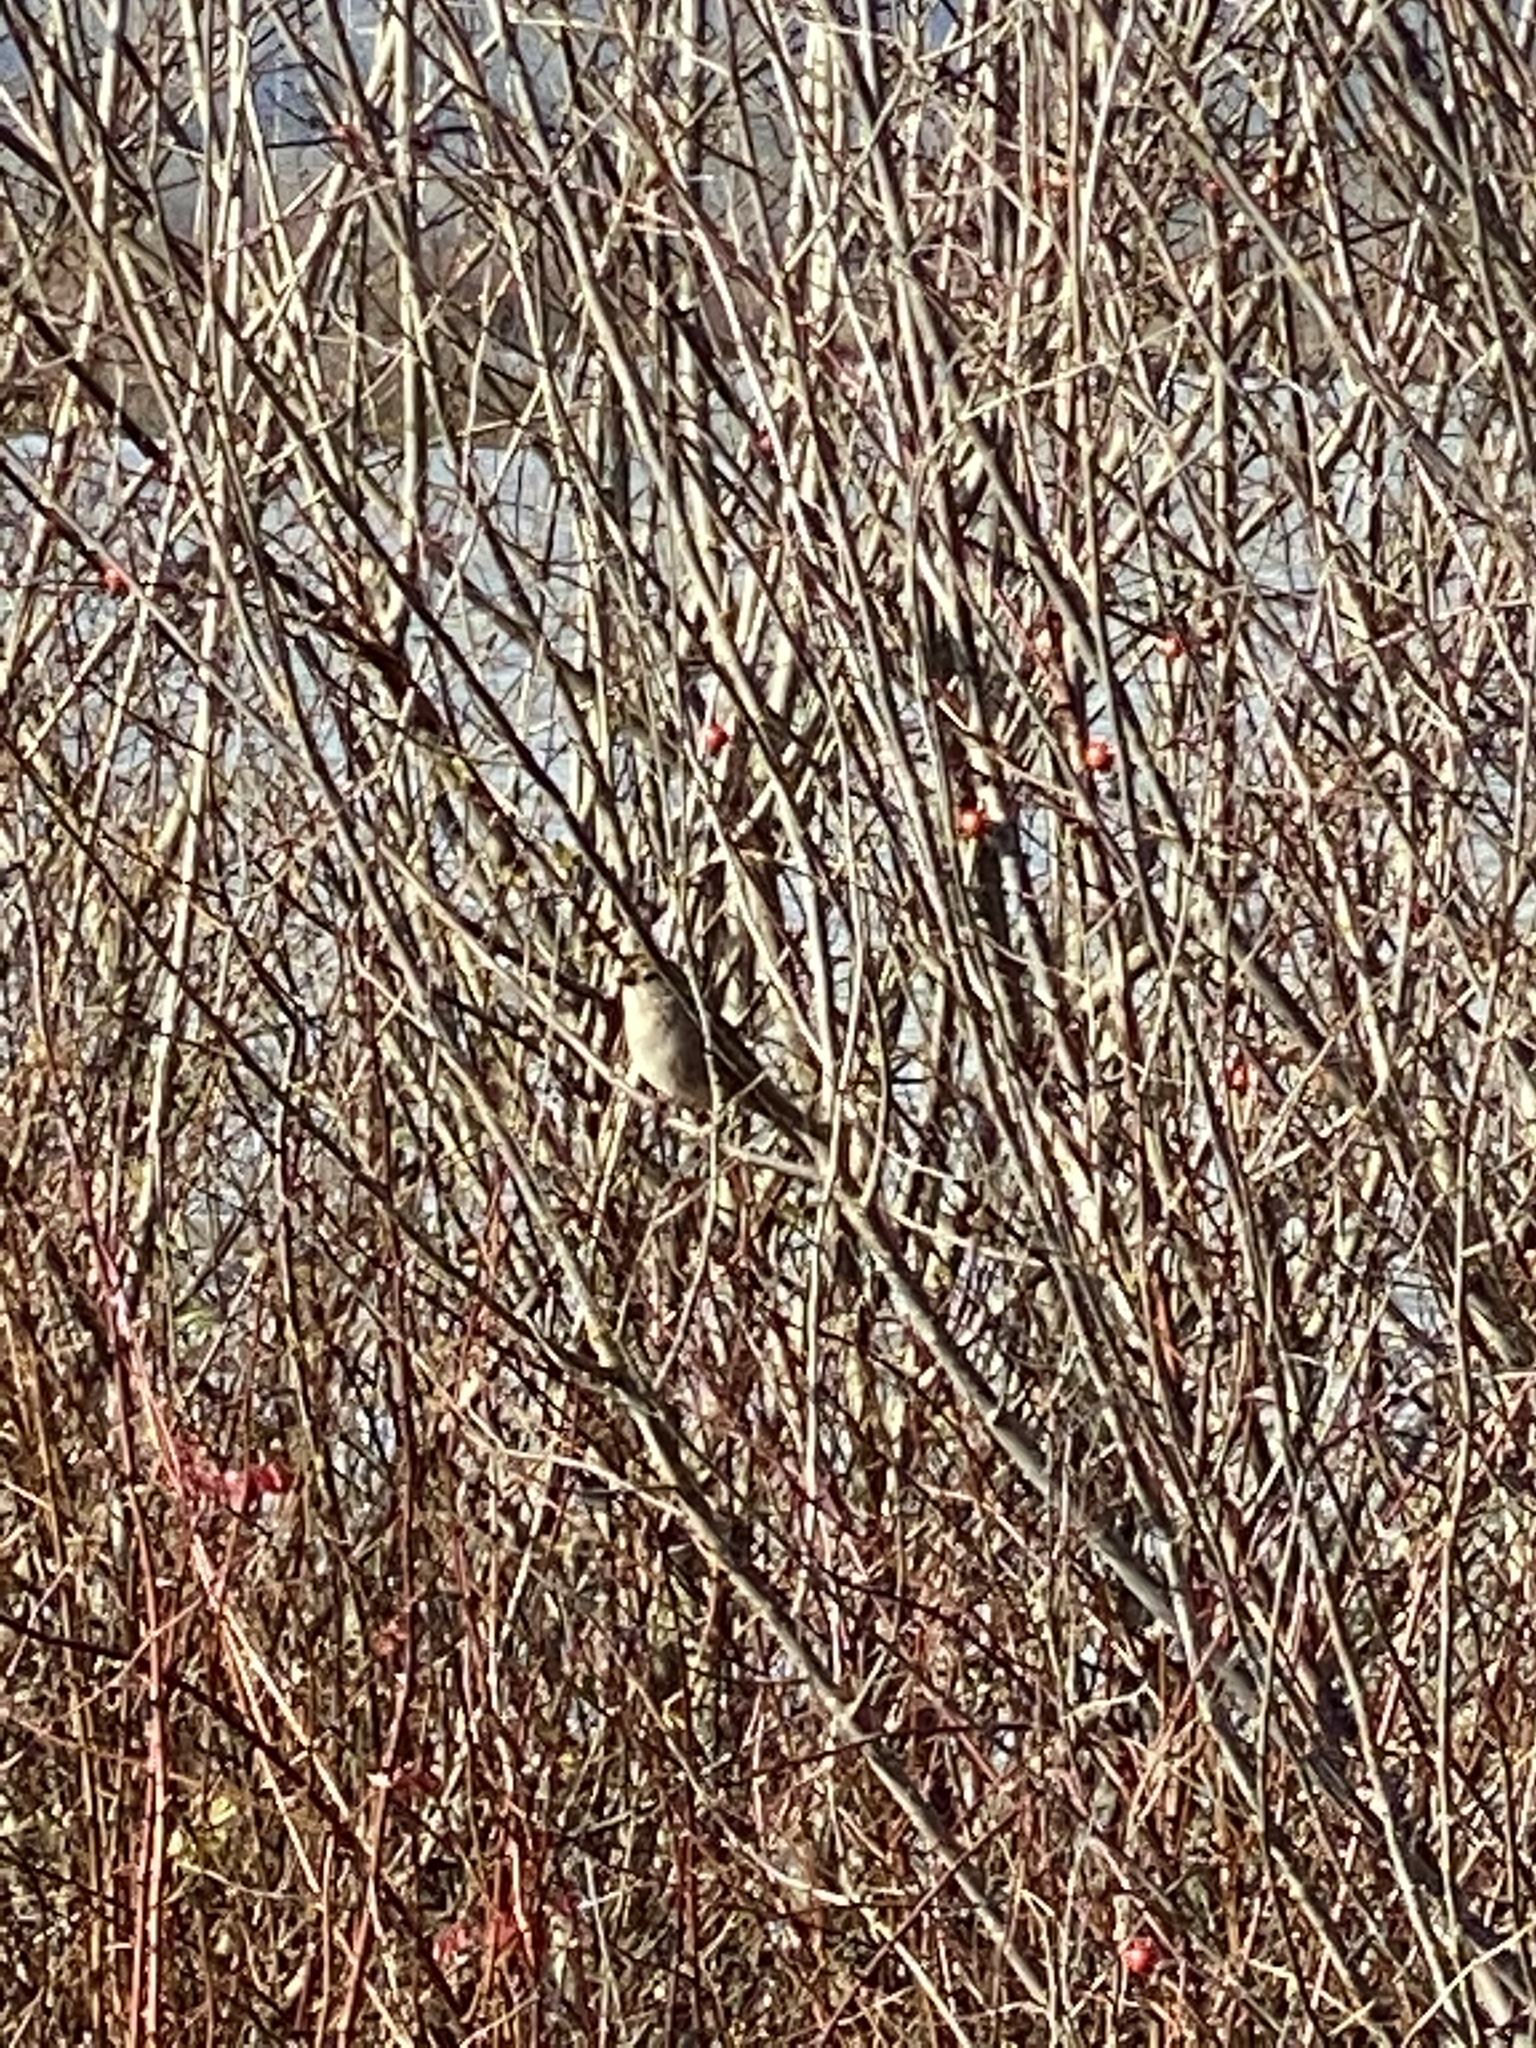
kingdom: Animalia
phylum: Chordata
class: Aves
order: Passeriformes
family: Passerellidae
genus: Zonotrichia
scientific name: Zonotrichia atricapilla
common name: Golden-crowned sparrow
